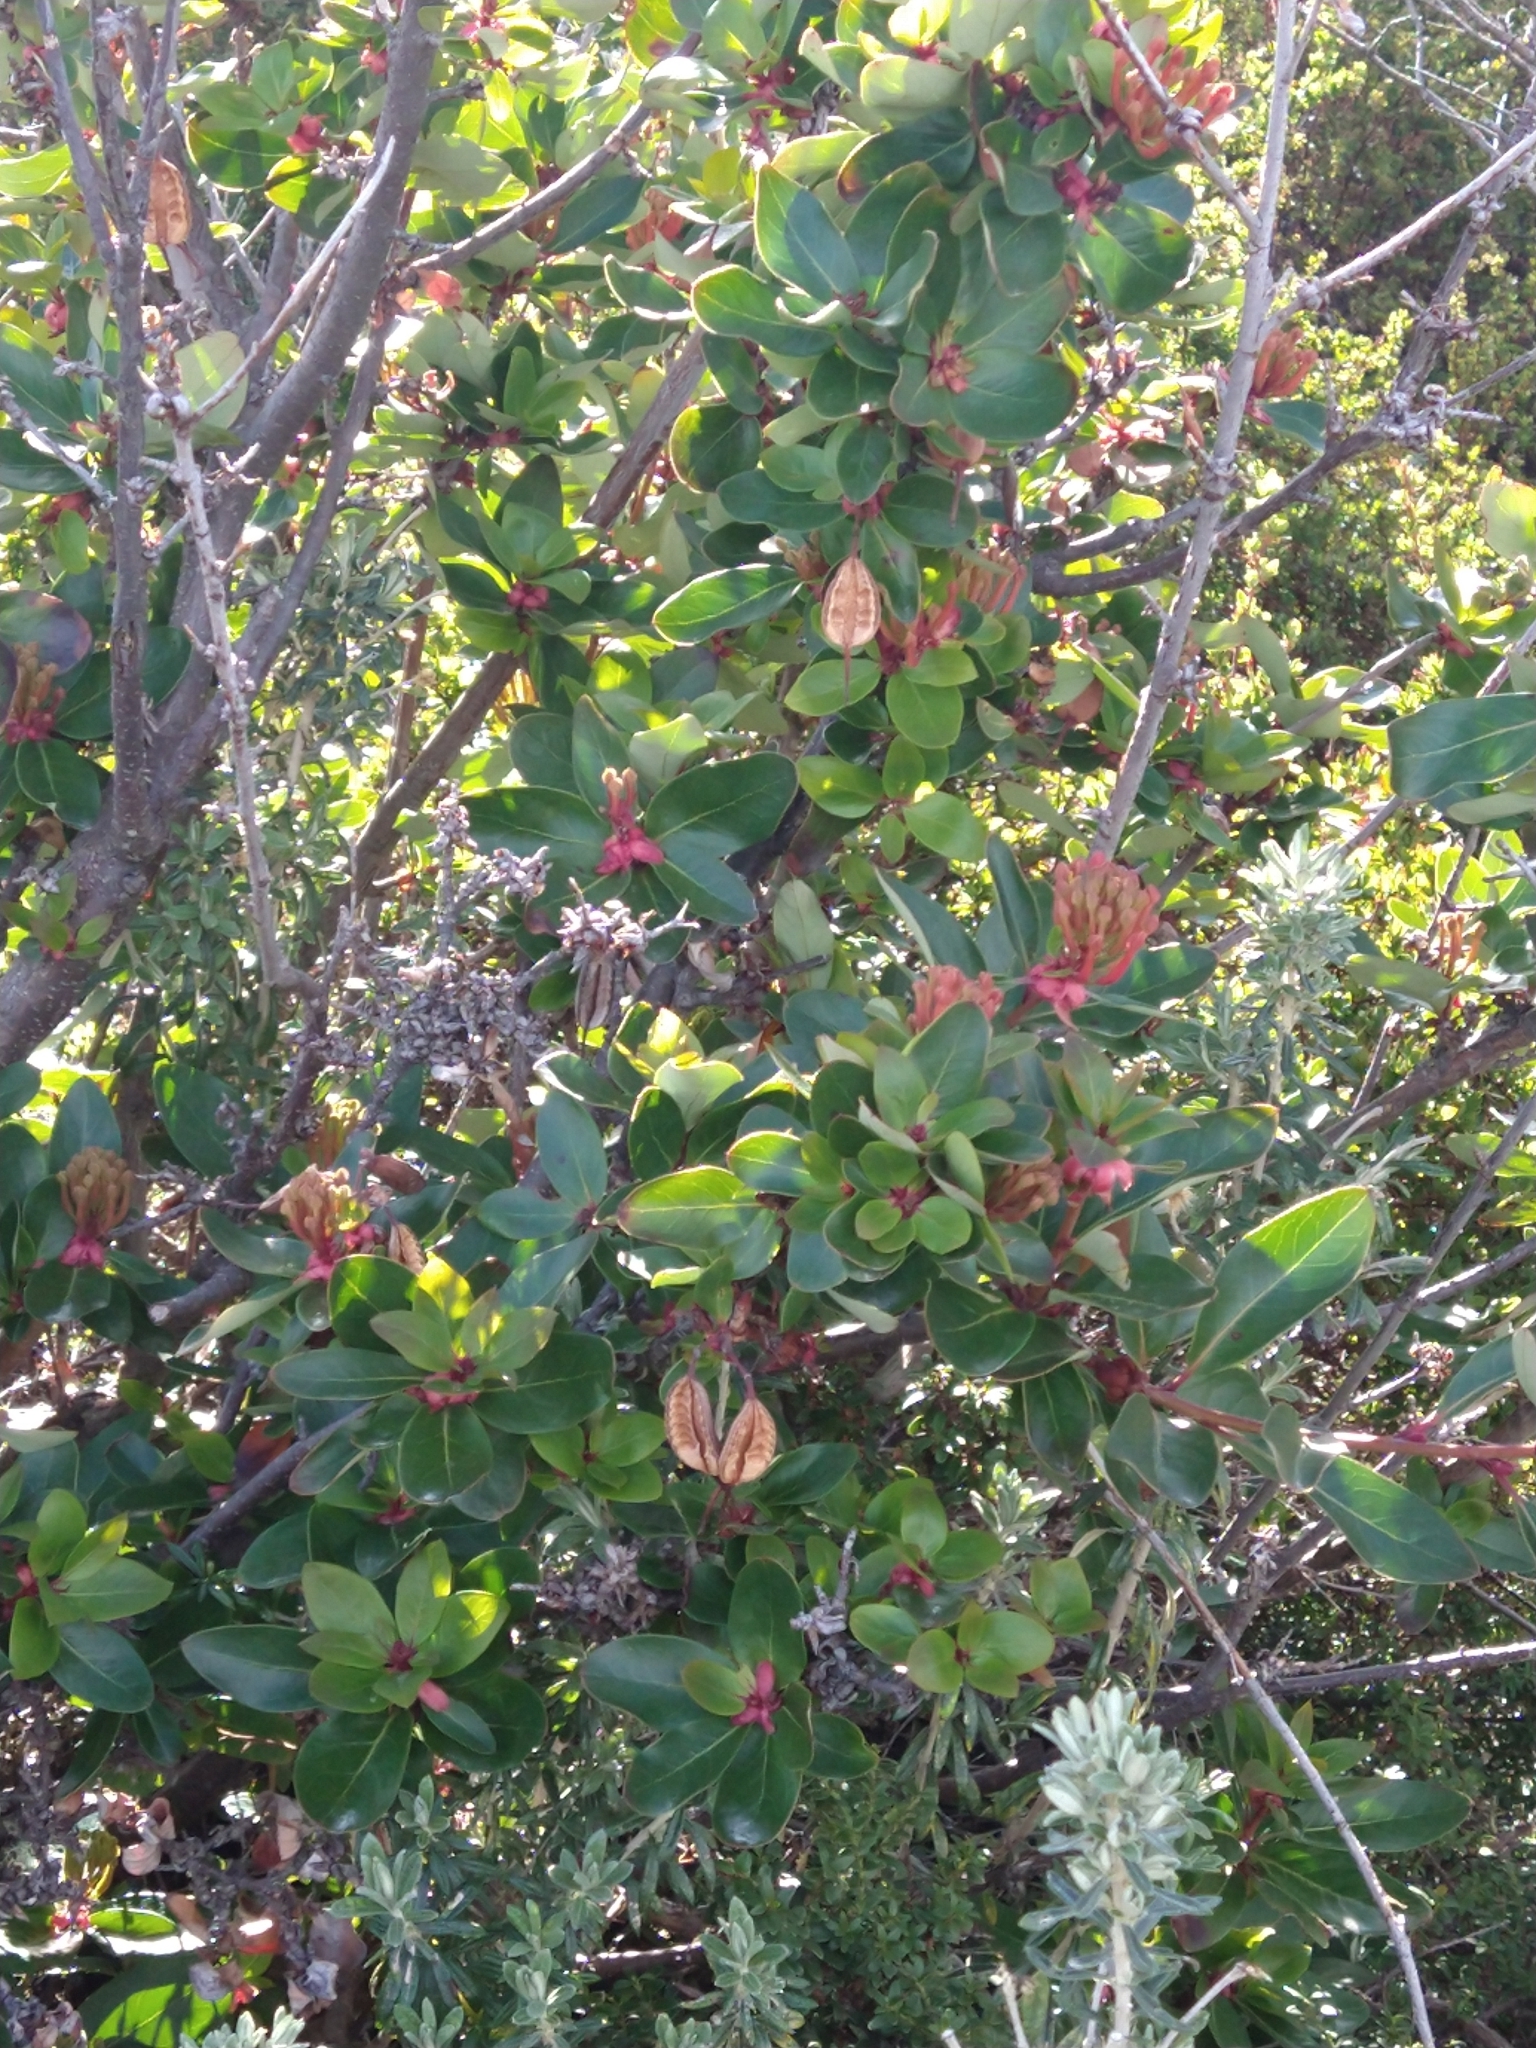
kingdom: Plantae
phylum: Tracheophyta
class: Magnoliopsida
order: Proteales
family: Proteaceae
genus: Embothrium
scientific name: Embothrium coccineum
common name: Chilean firebush
